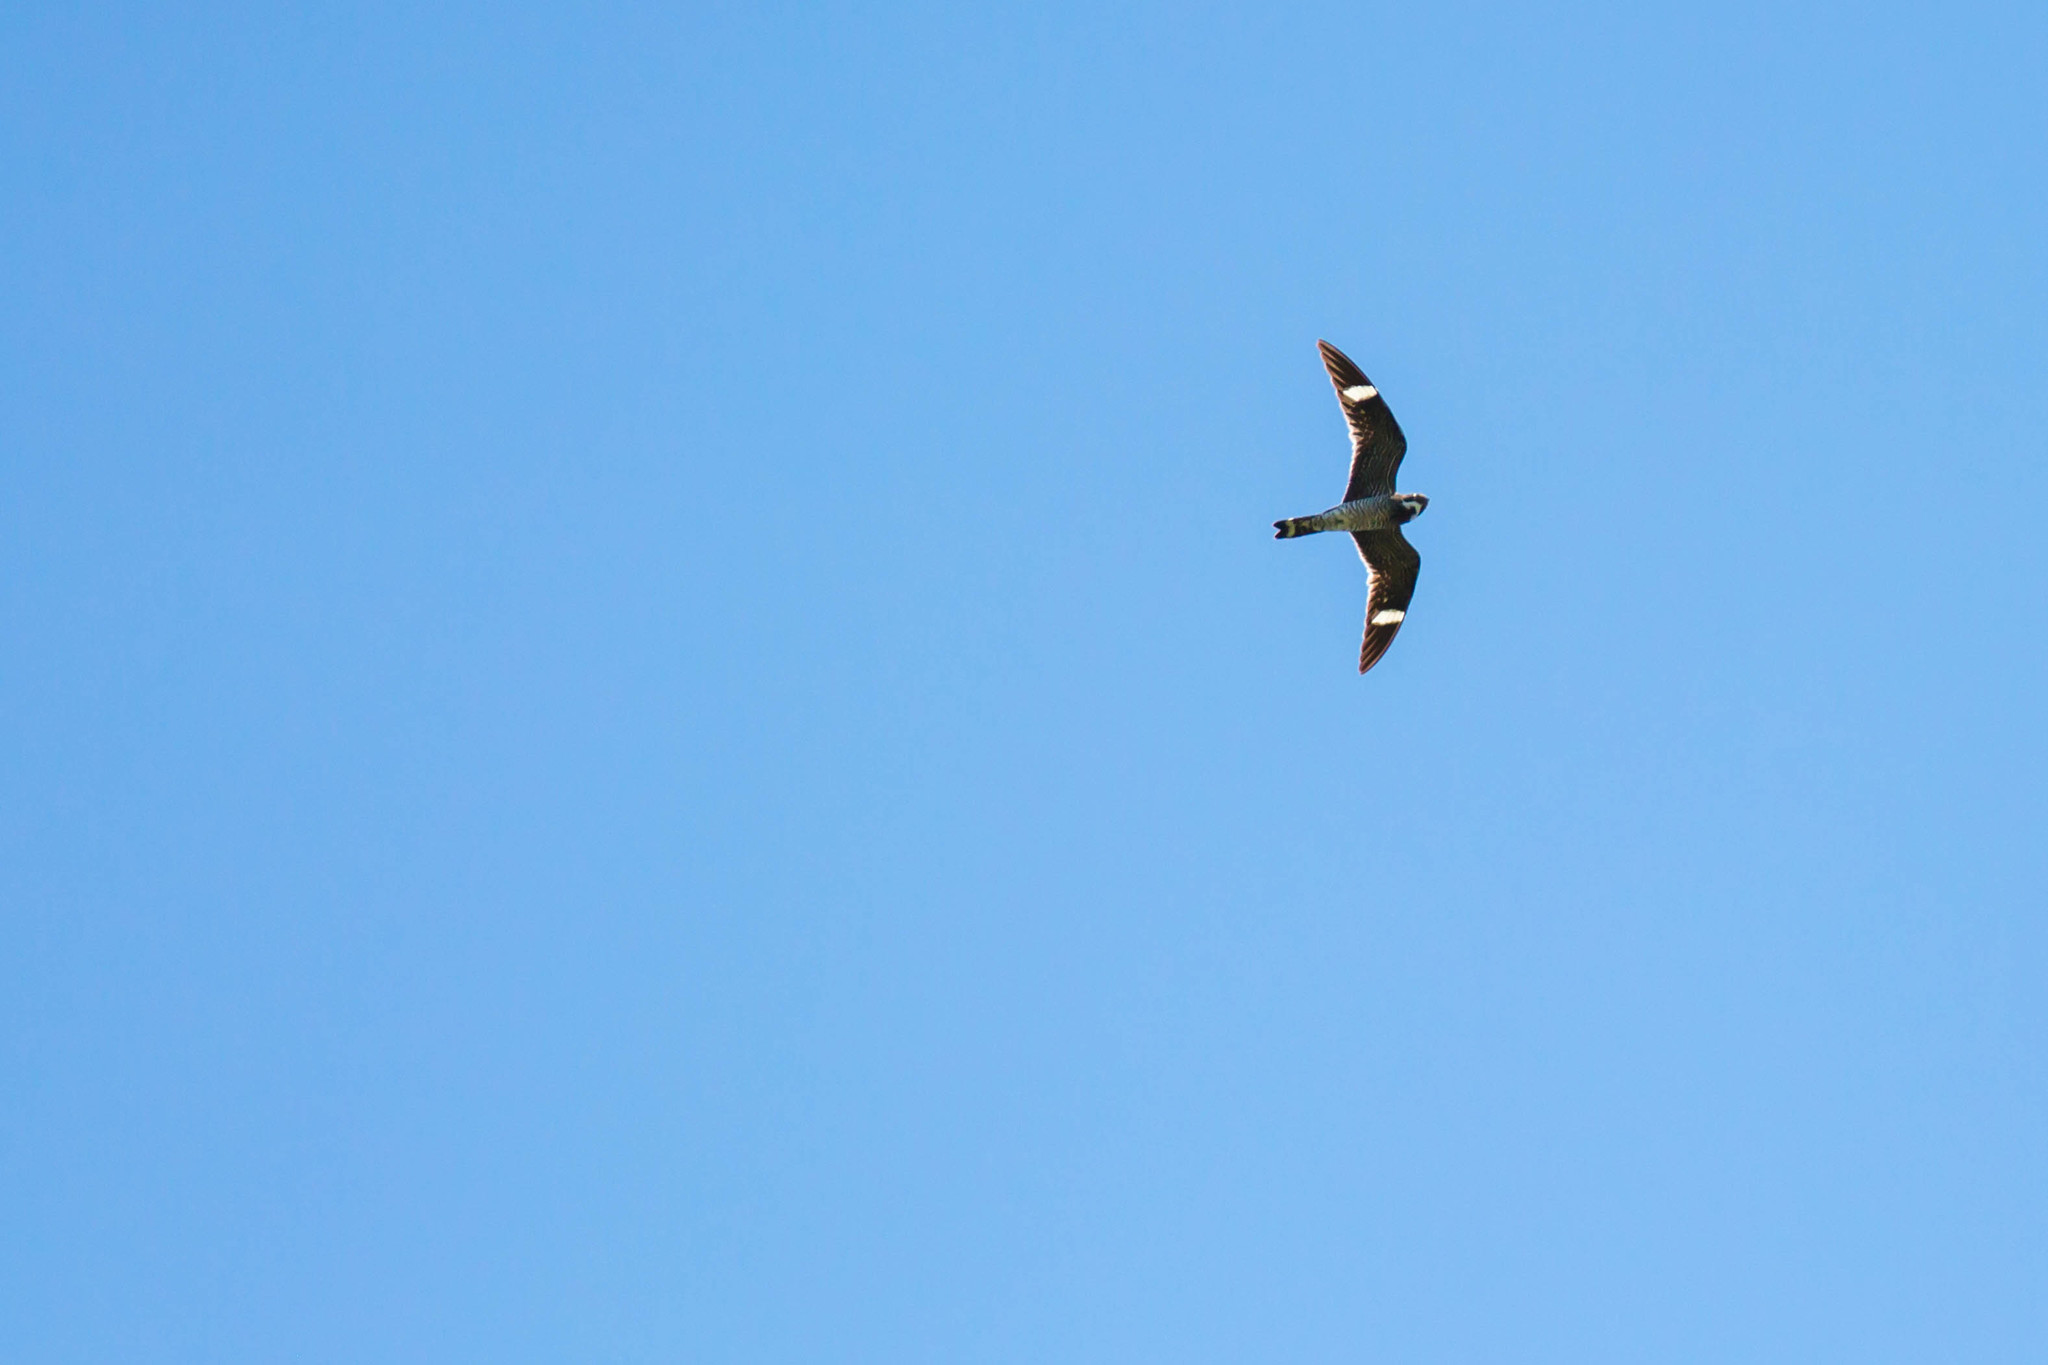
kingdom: Animalia
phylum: Chordata
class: Aves
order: Caprimulgiformes
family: Caprimulgidae
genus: Chordeiles
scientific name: Chordeiles minor
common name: Common nighthawk
